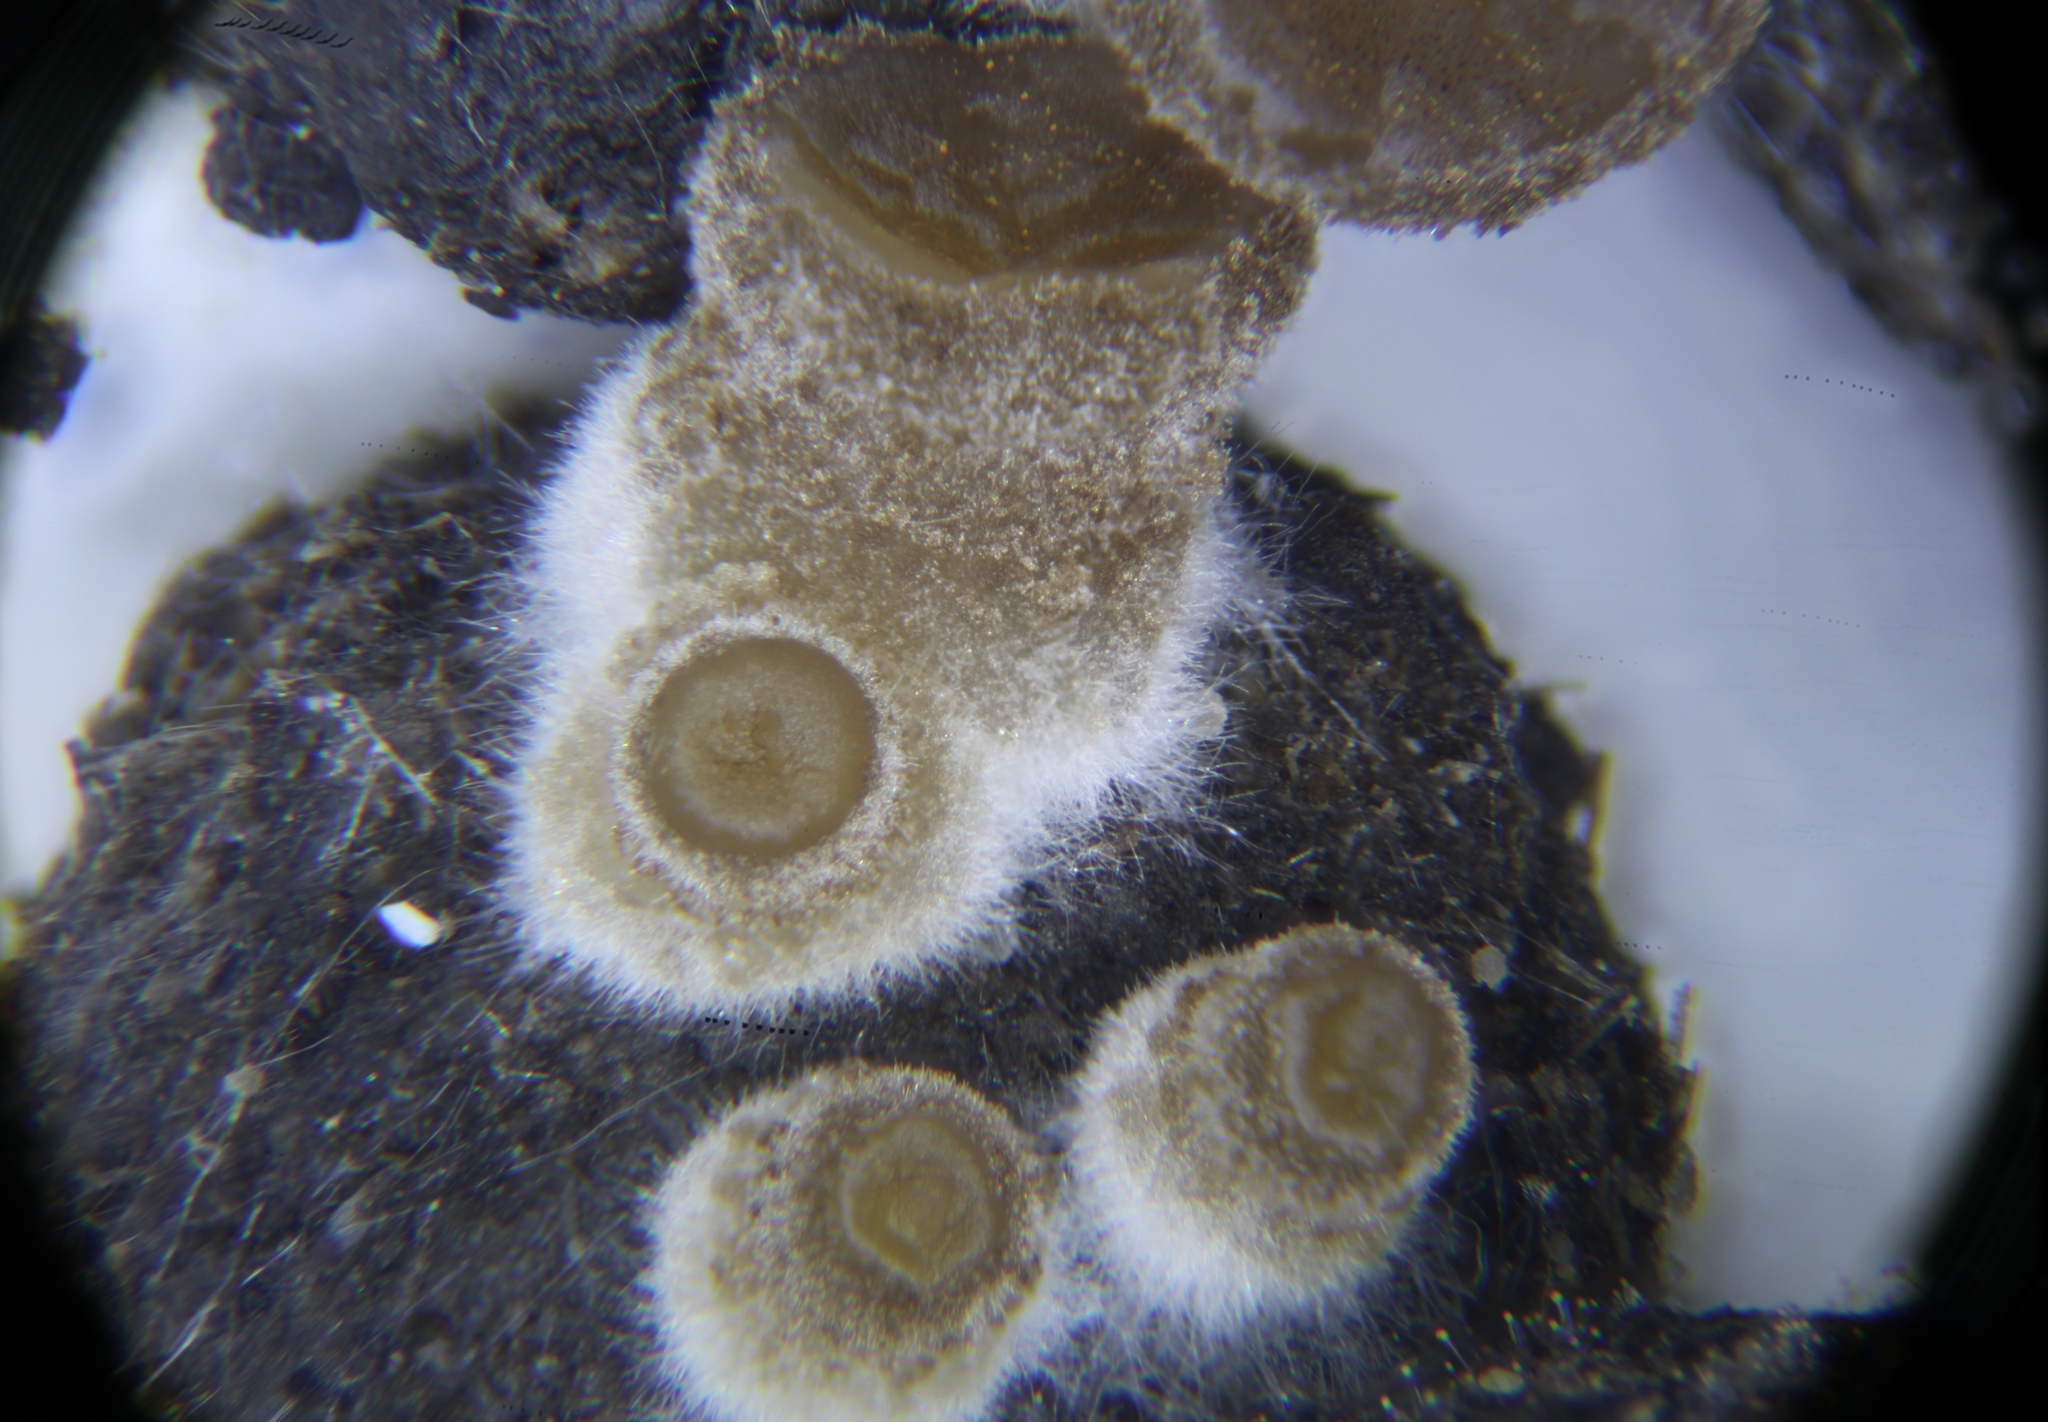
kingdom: Fungi
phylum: Ascomycota
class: Pezizomycetes
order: Pezizales
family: Pezizaceae
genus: Peziza
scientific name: Peziza fimeti
